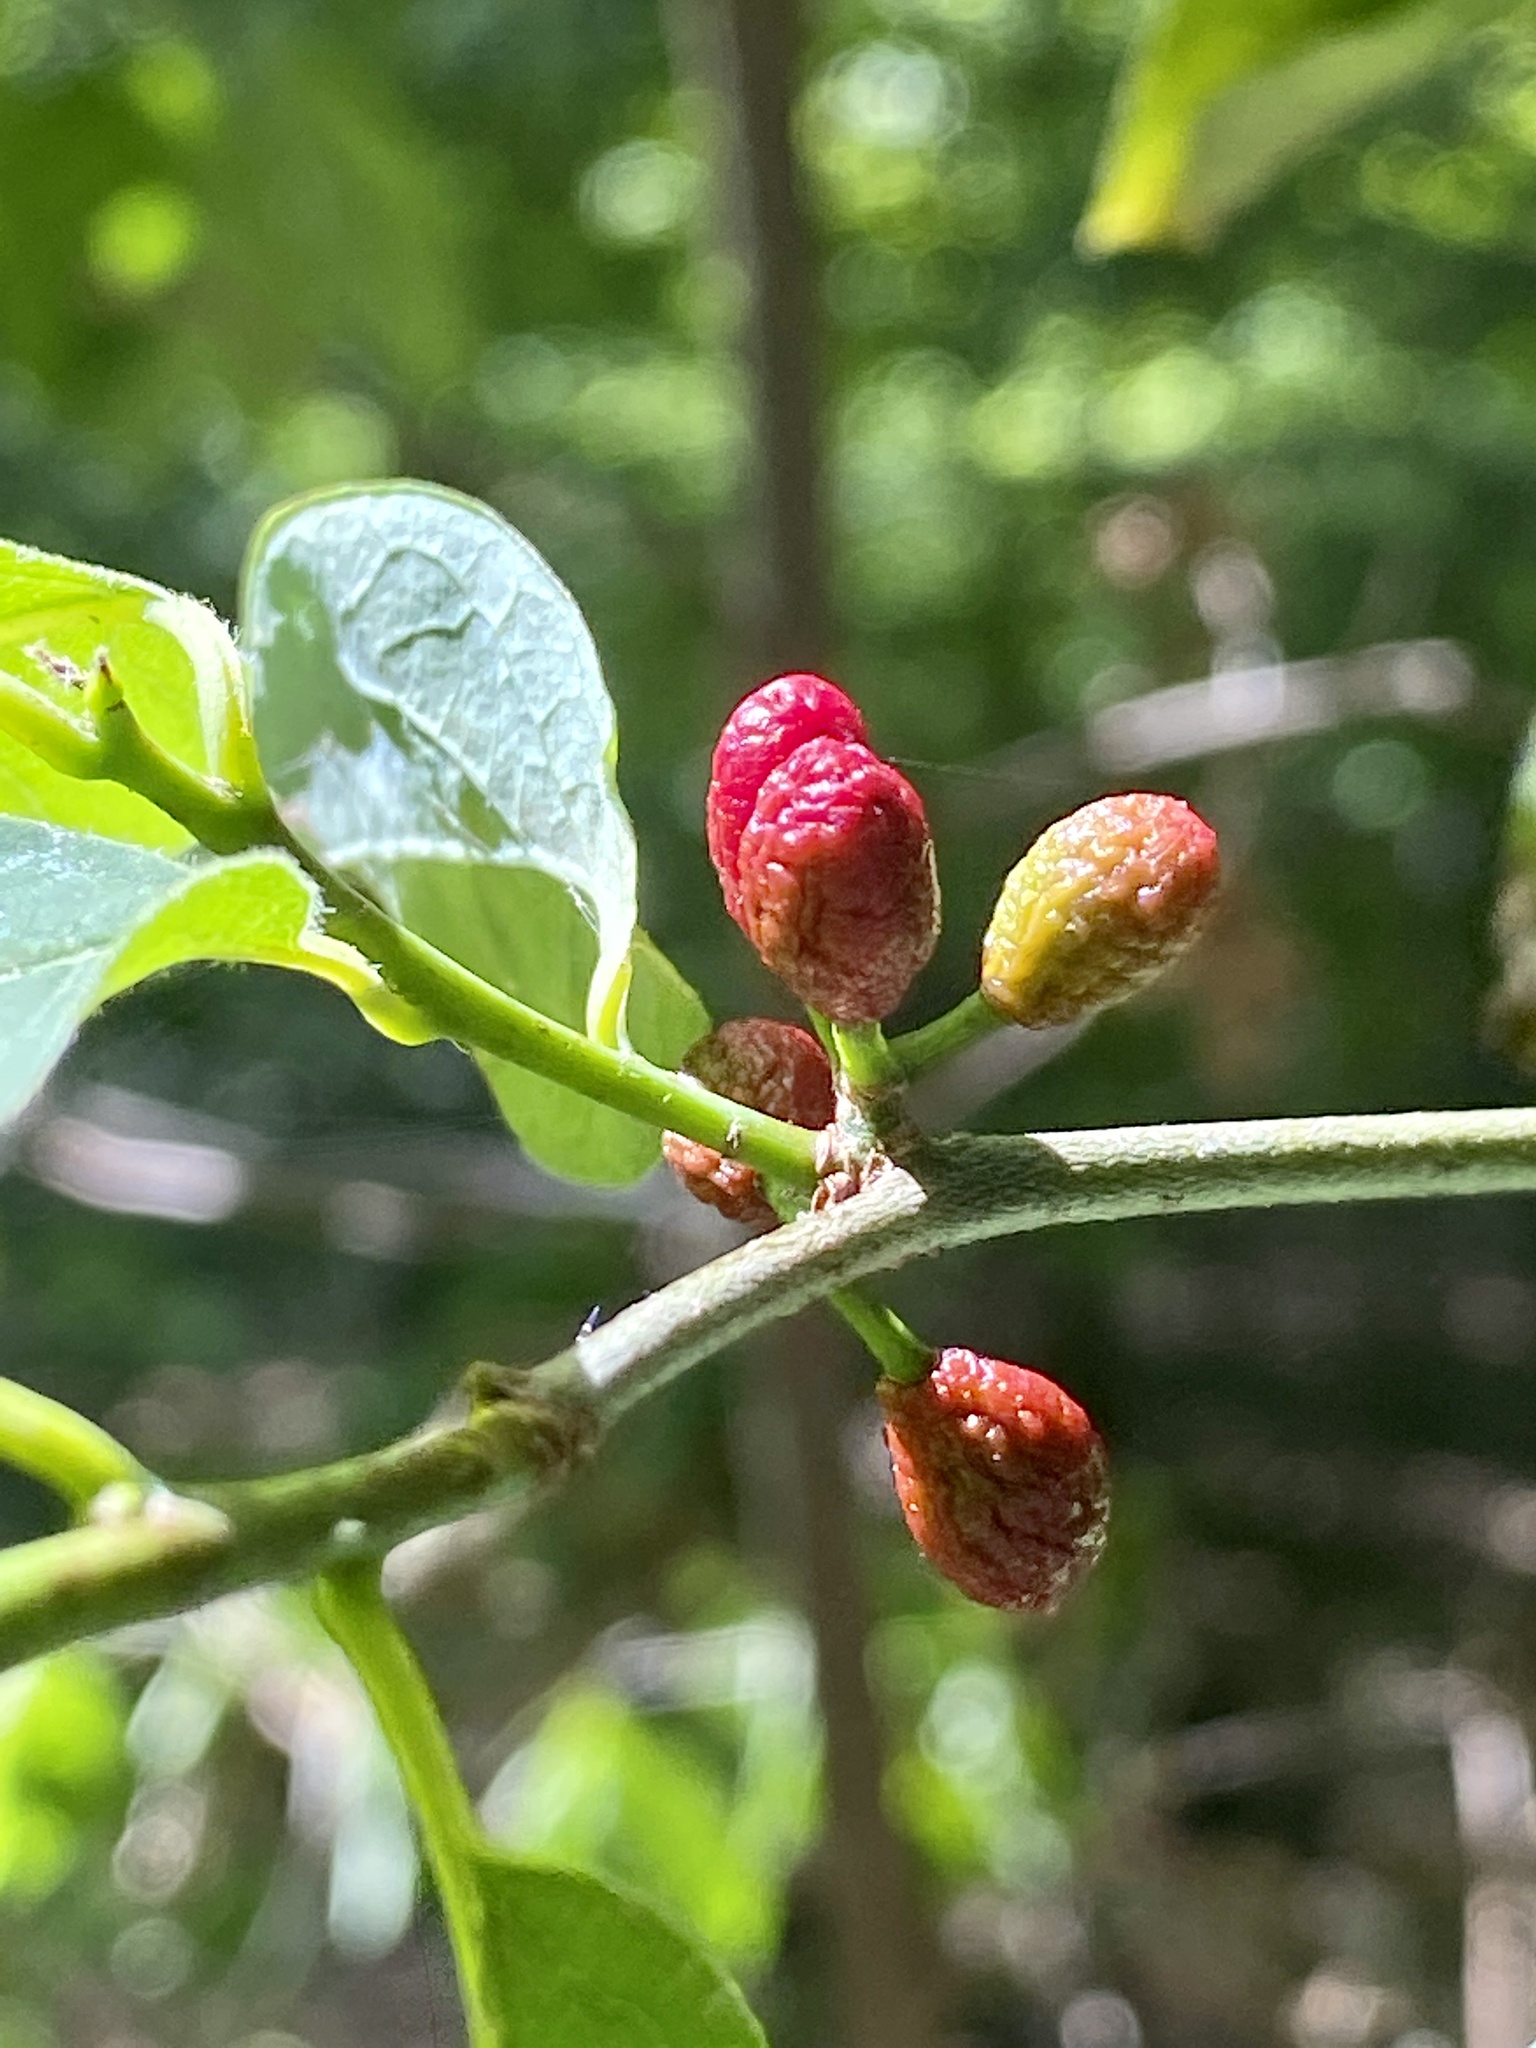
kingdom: Plantae
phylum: Tracheophyta
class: Magnoliopsida
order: Laurales
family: Lauraceae
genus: Lindera
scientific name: Lindera benzoin
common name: Spicebush
